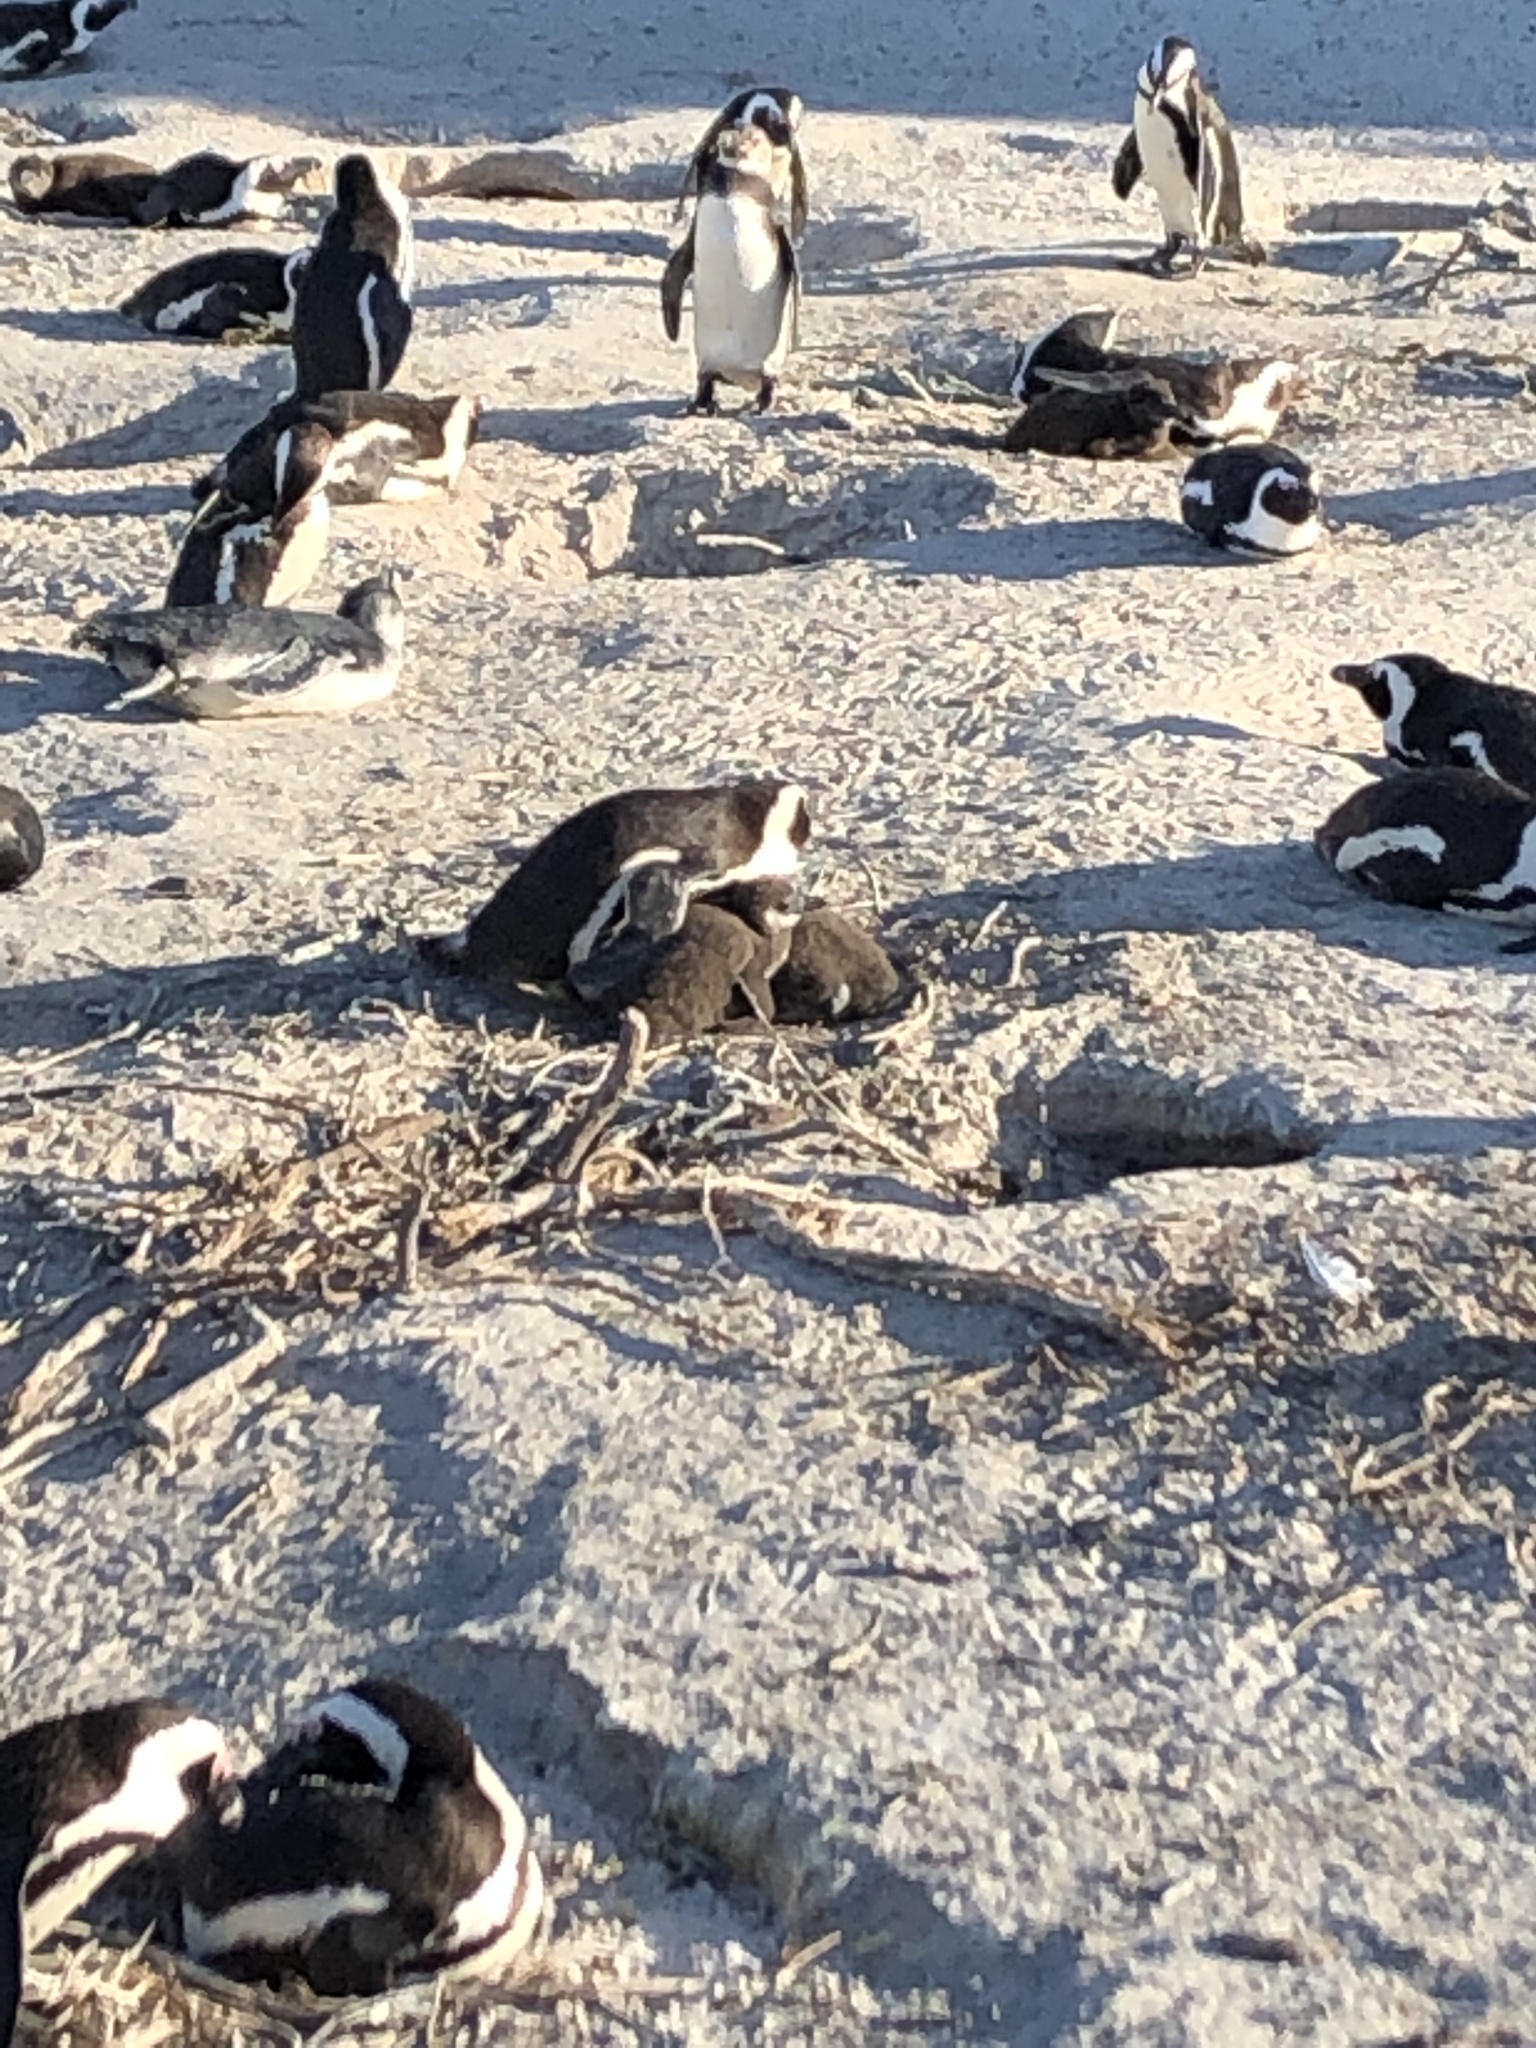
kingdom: Animalia
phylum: Chordata
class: Aves
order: Sphenisciformes
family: Spheniscidae
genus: Spheniscus
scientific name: Spheniscus demersus
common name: African penguin
